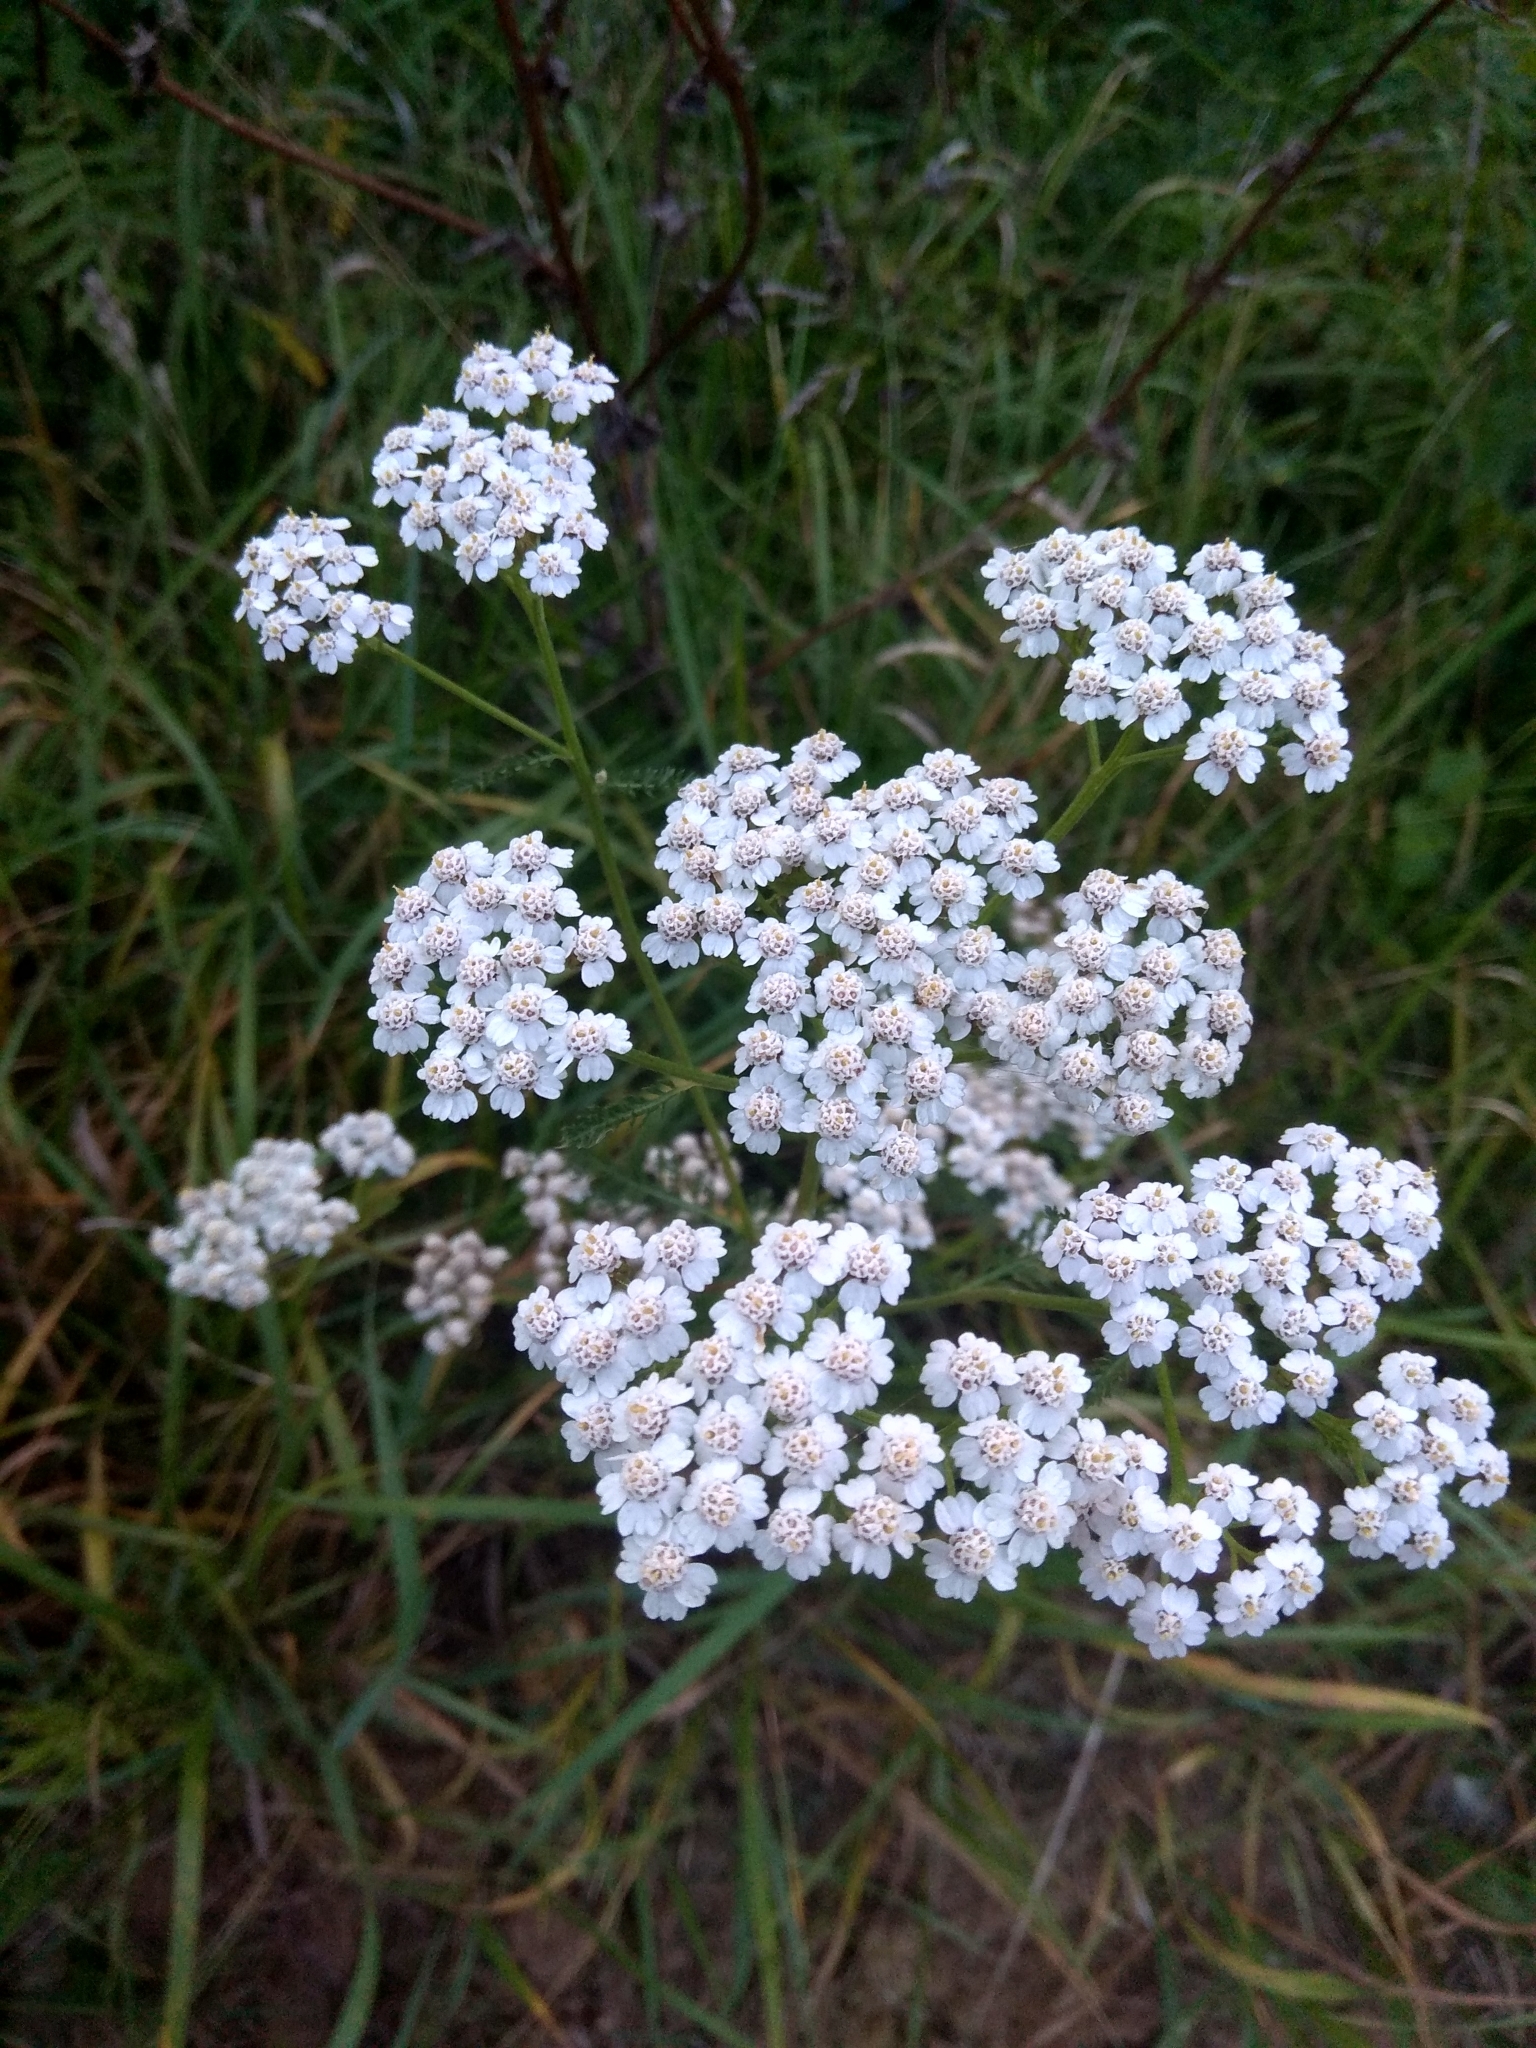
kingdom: Plantae
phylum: Tracheophyta
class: Magnoliopsida
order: Asterales
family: Asteraceae
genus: Achillea
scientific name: Achillea millefolium
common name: Yarrow
